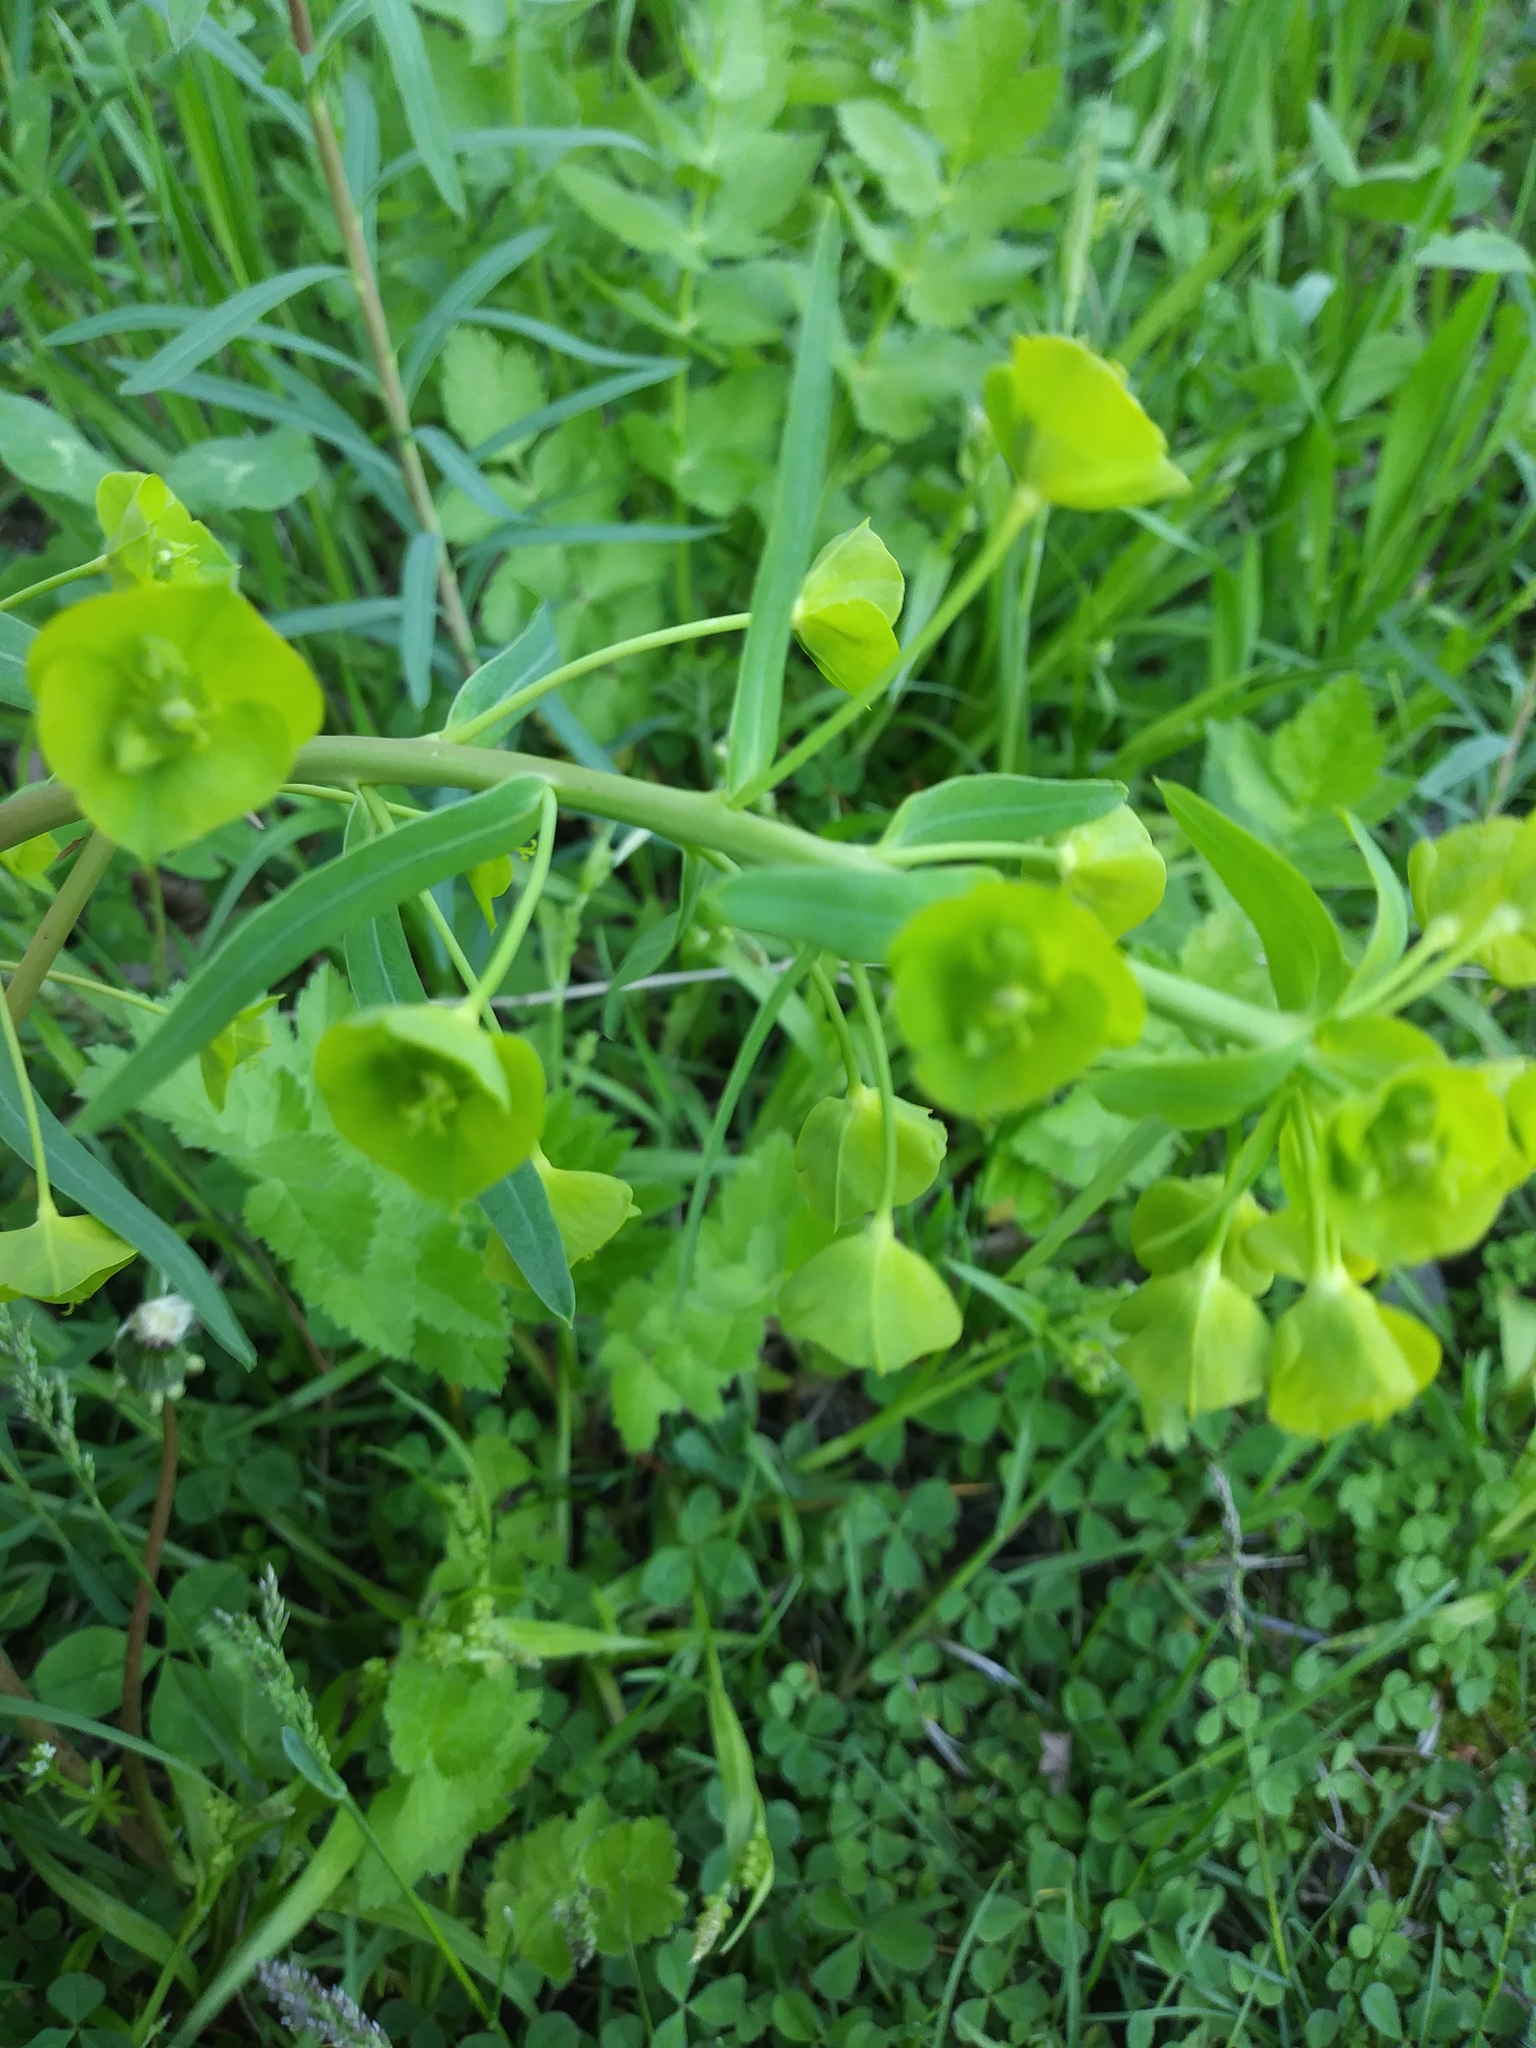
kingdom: Plantae
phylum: Tracheophyta
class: Magnoliopsida
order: Malpighiales
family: Euphorbiaceae
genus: Euphorbia
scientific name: Euphorbia virgata
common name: Leafy spurge
